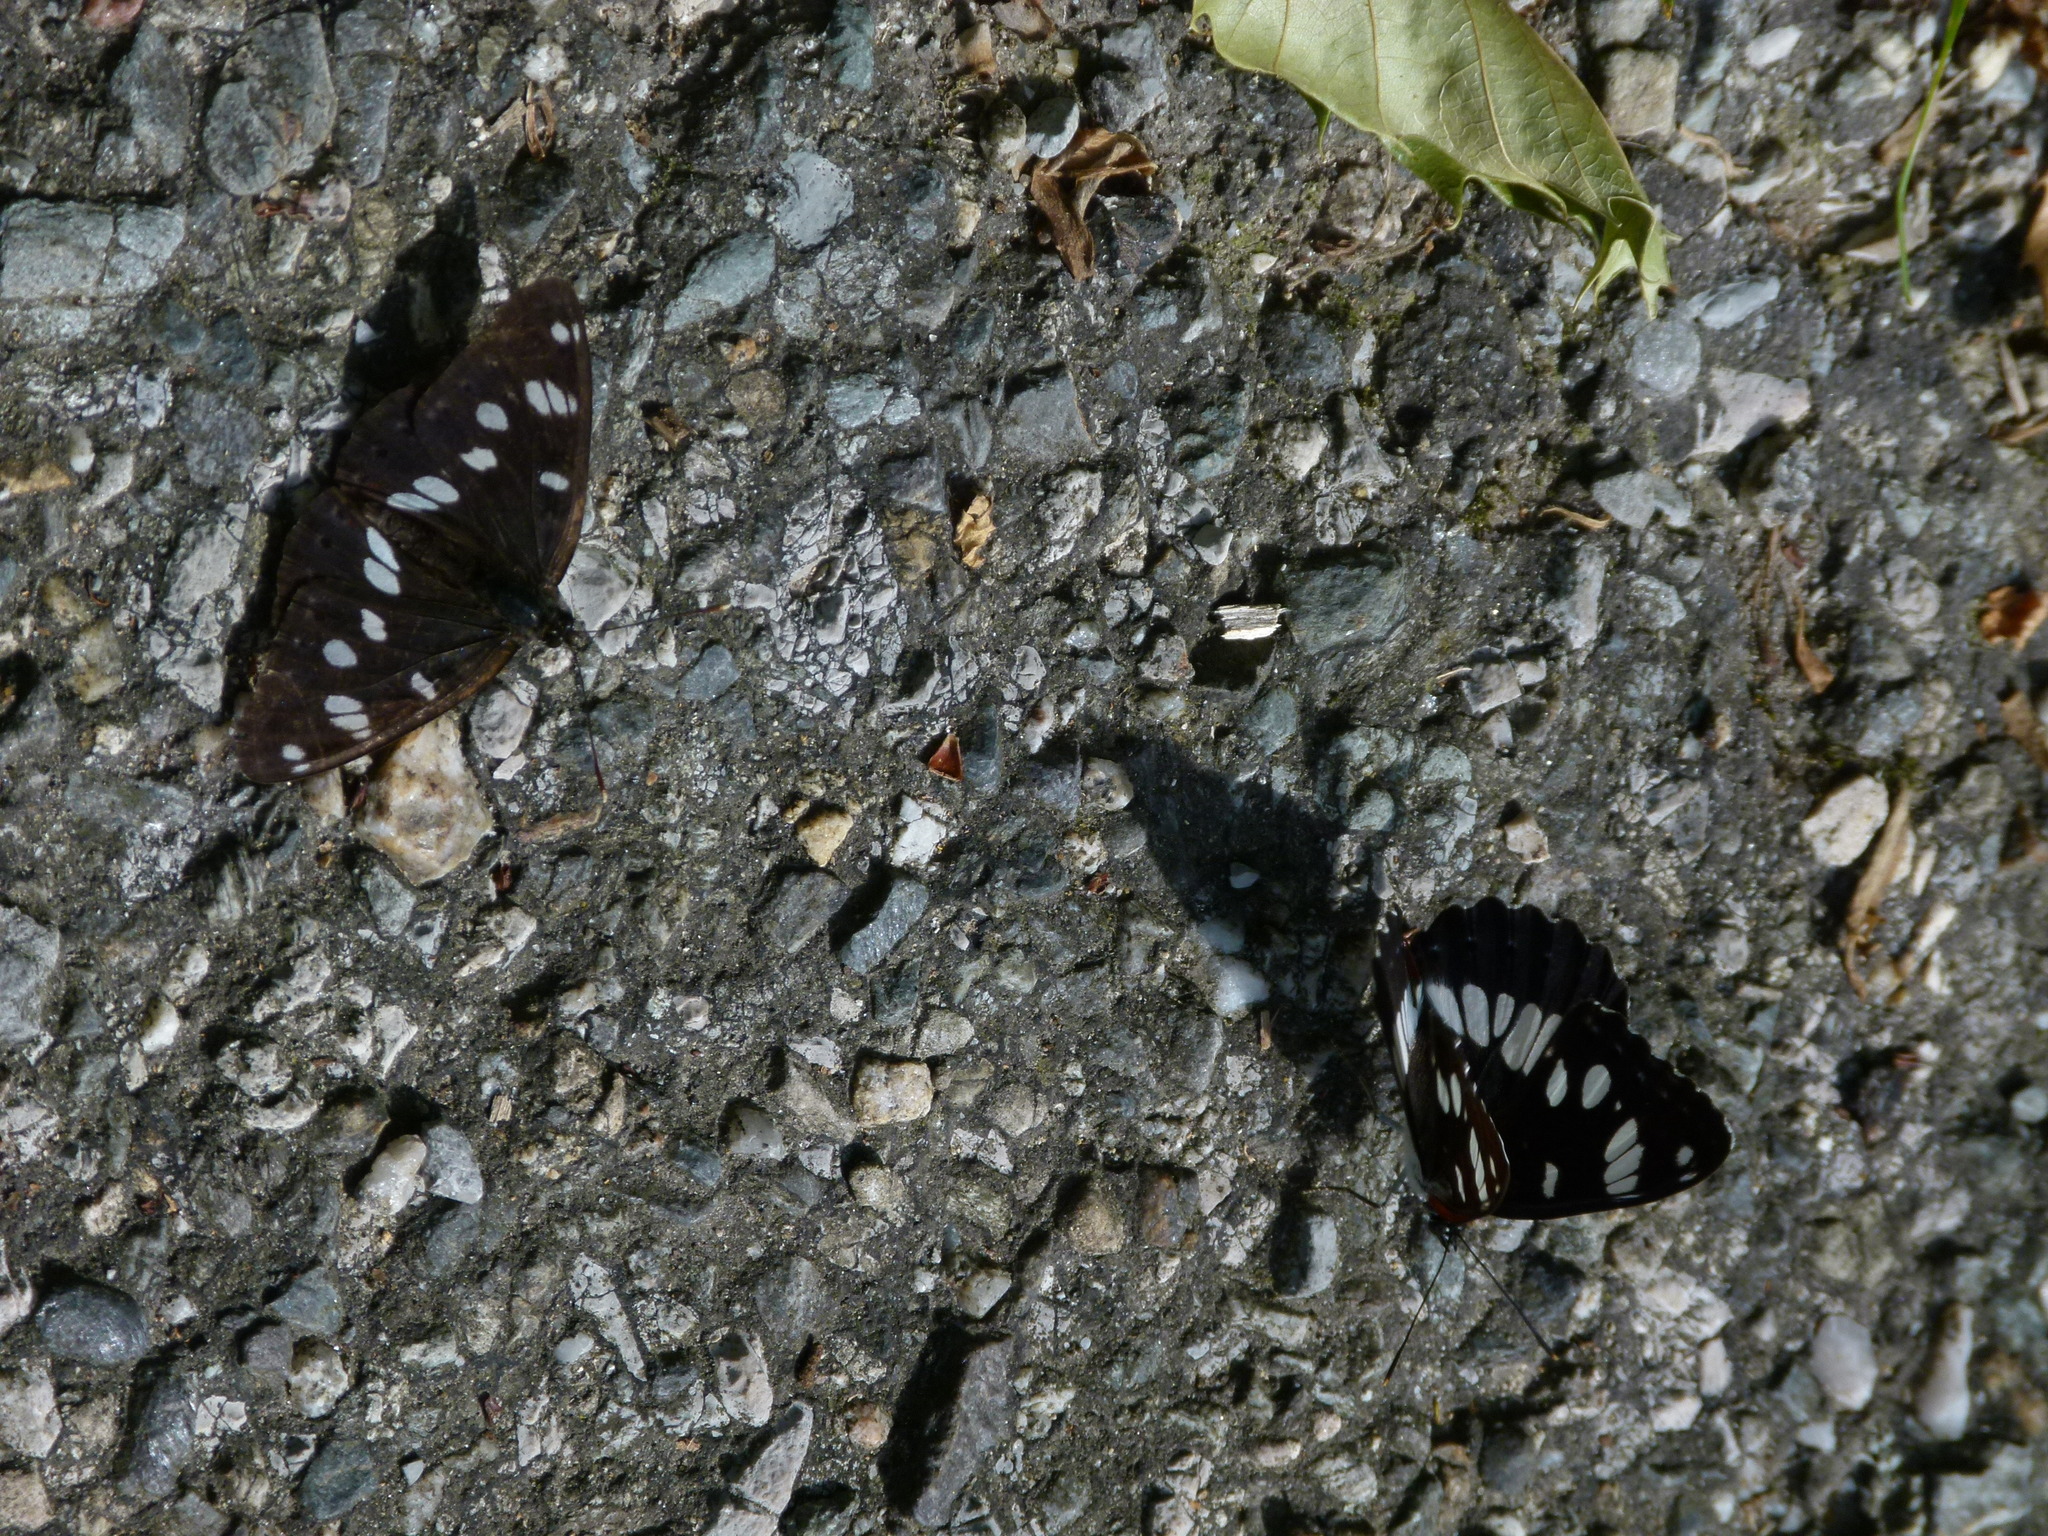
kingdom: Animalia
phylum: Arthropoda
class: Insecta
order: Lepidoptera
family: Nymphalidae
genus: Limenitis
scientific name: Limenitis reducta
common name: Southern white admiral
